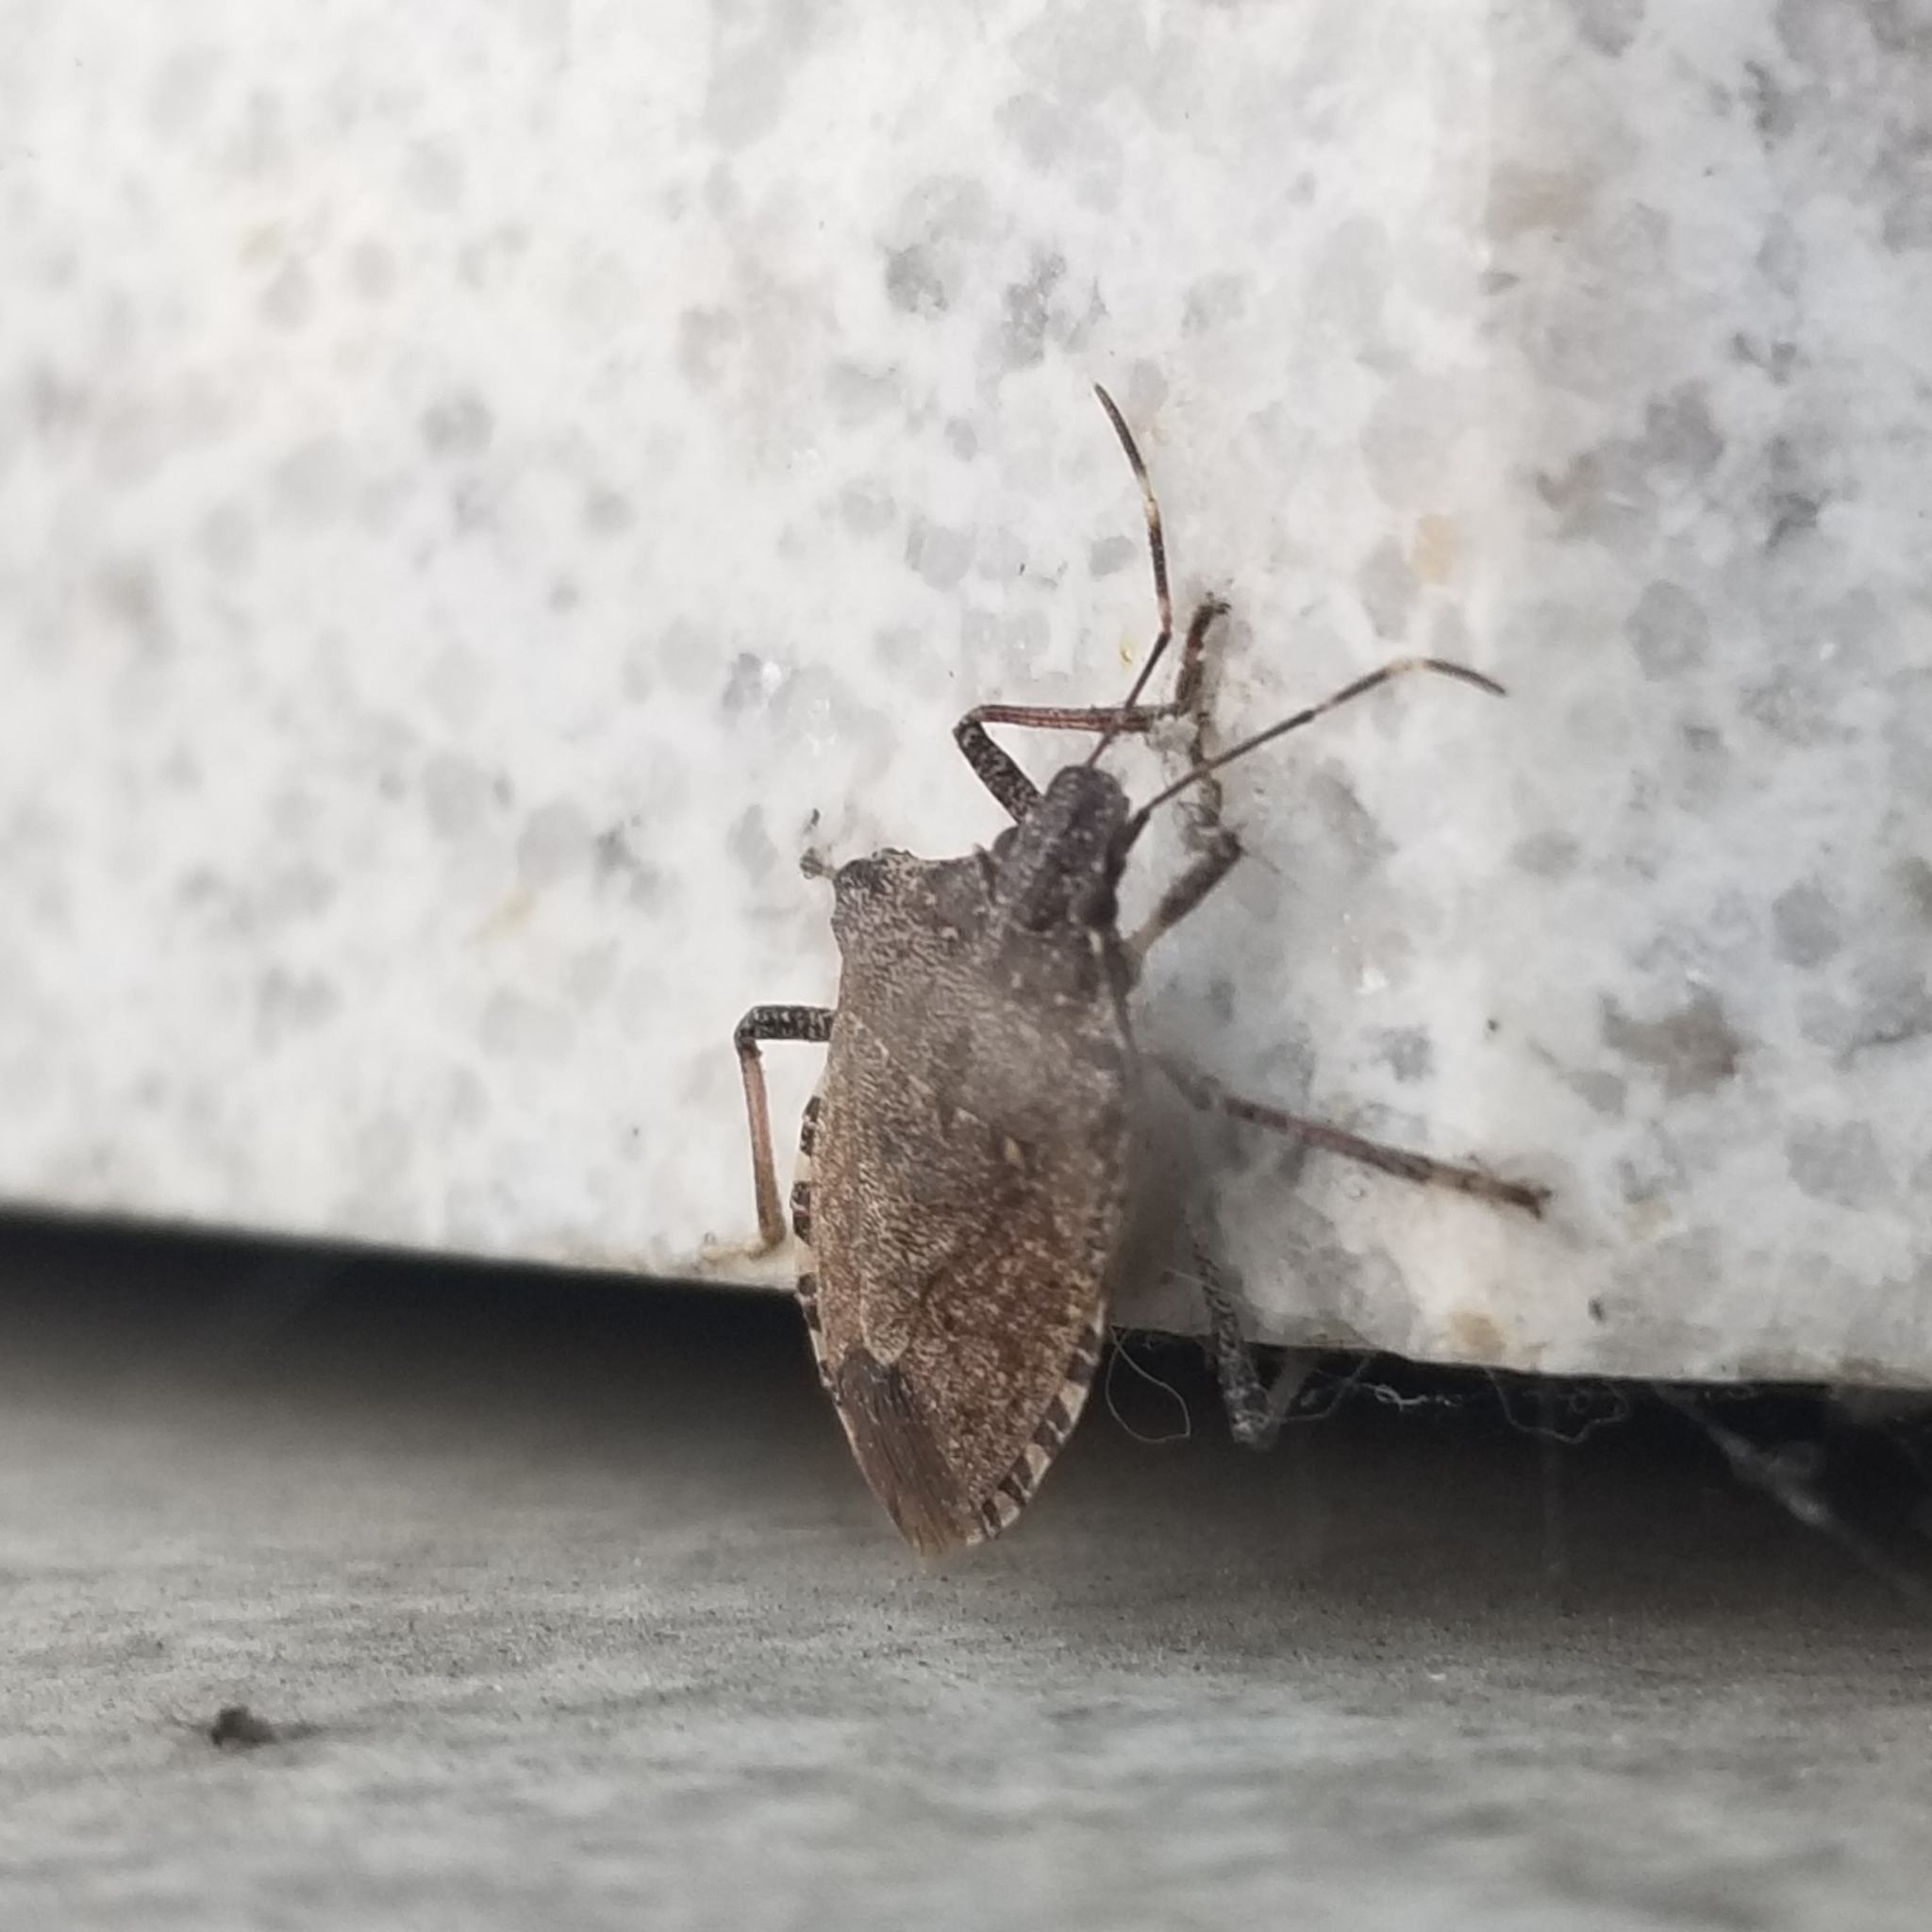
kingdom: Animalia
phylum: Arthropoda
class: Insecta
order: Hemiptera
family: Pentatomidae
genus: Halyomorpha
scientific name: Halyomorpha halys
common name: Brown marmorated stink bug
